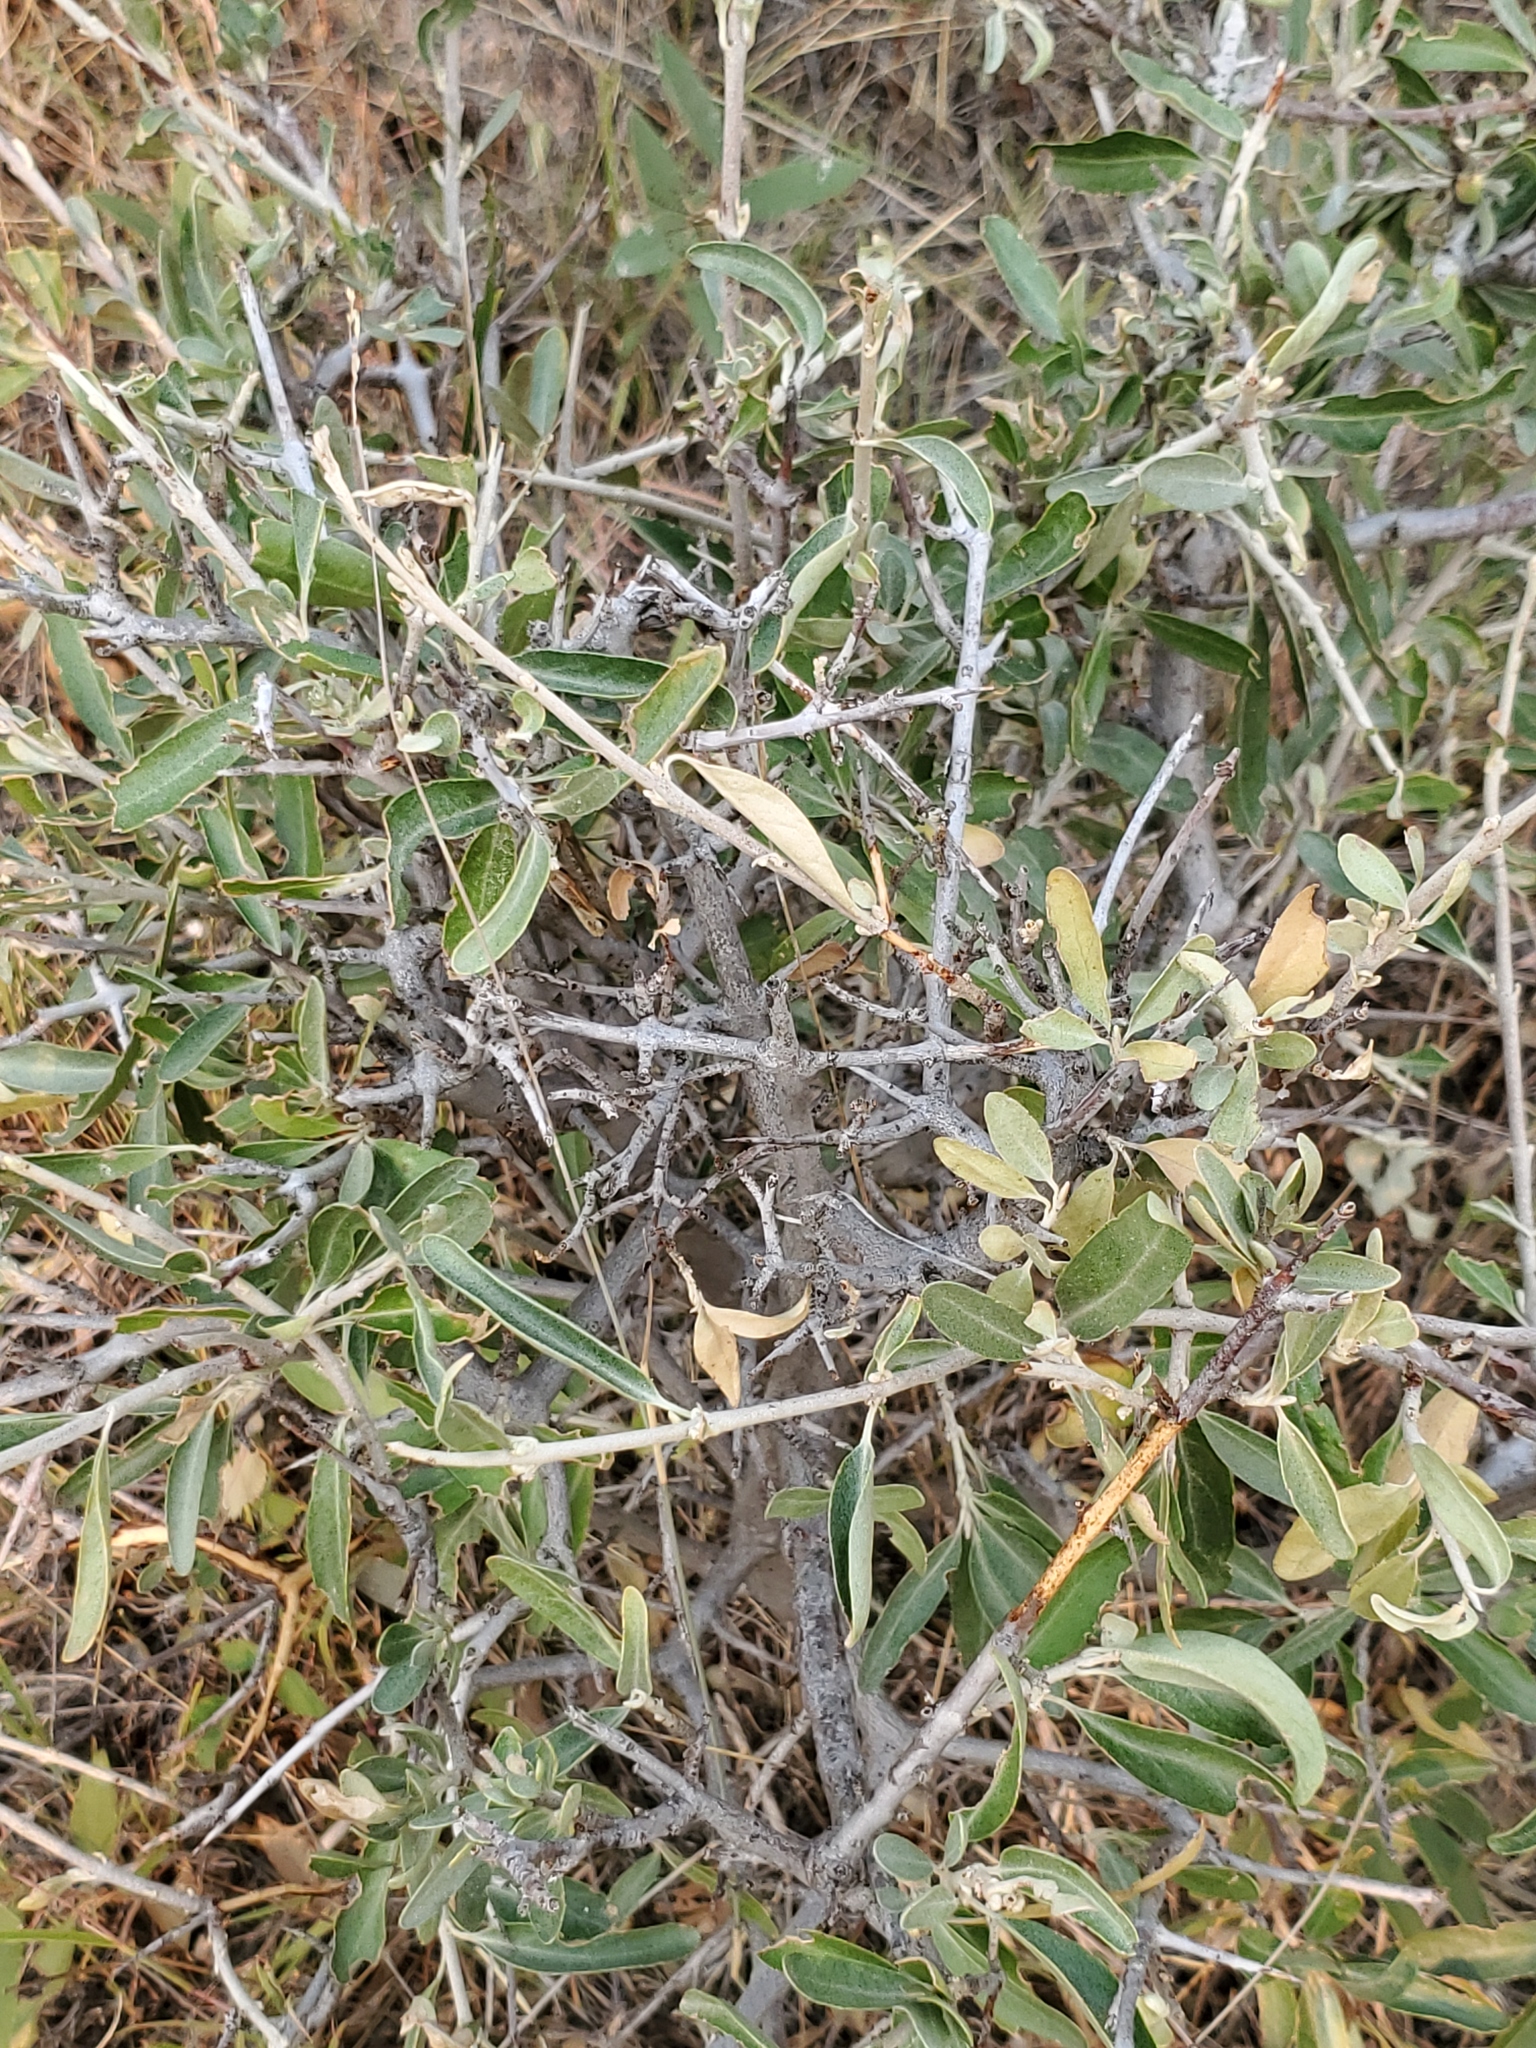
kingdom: Plantae
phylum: Tracheophyta
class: Magnoliopsida
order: Rosales
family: Elaeagnaceae
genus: Shepherdia
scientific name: Shepherdia argentea
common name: Silver buffaloberry
